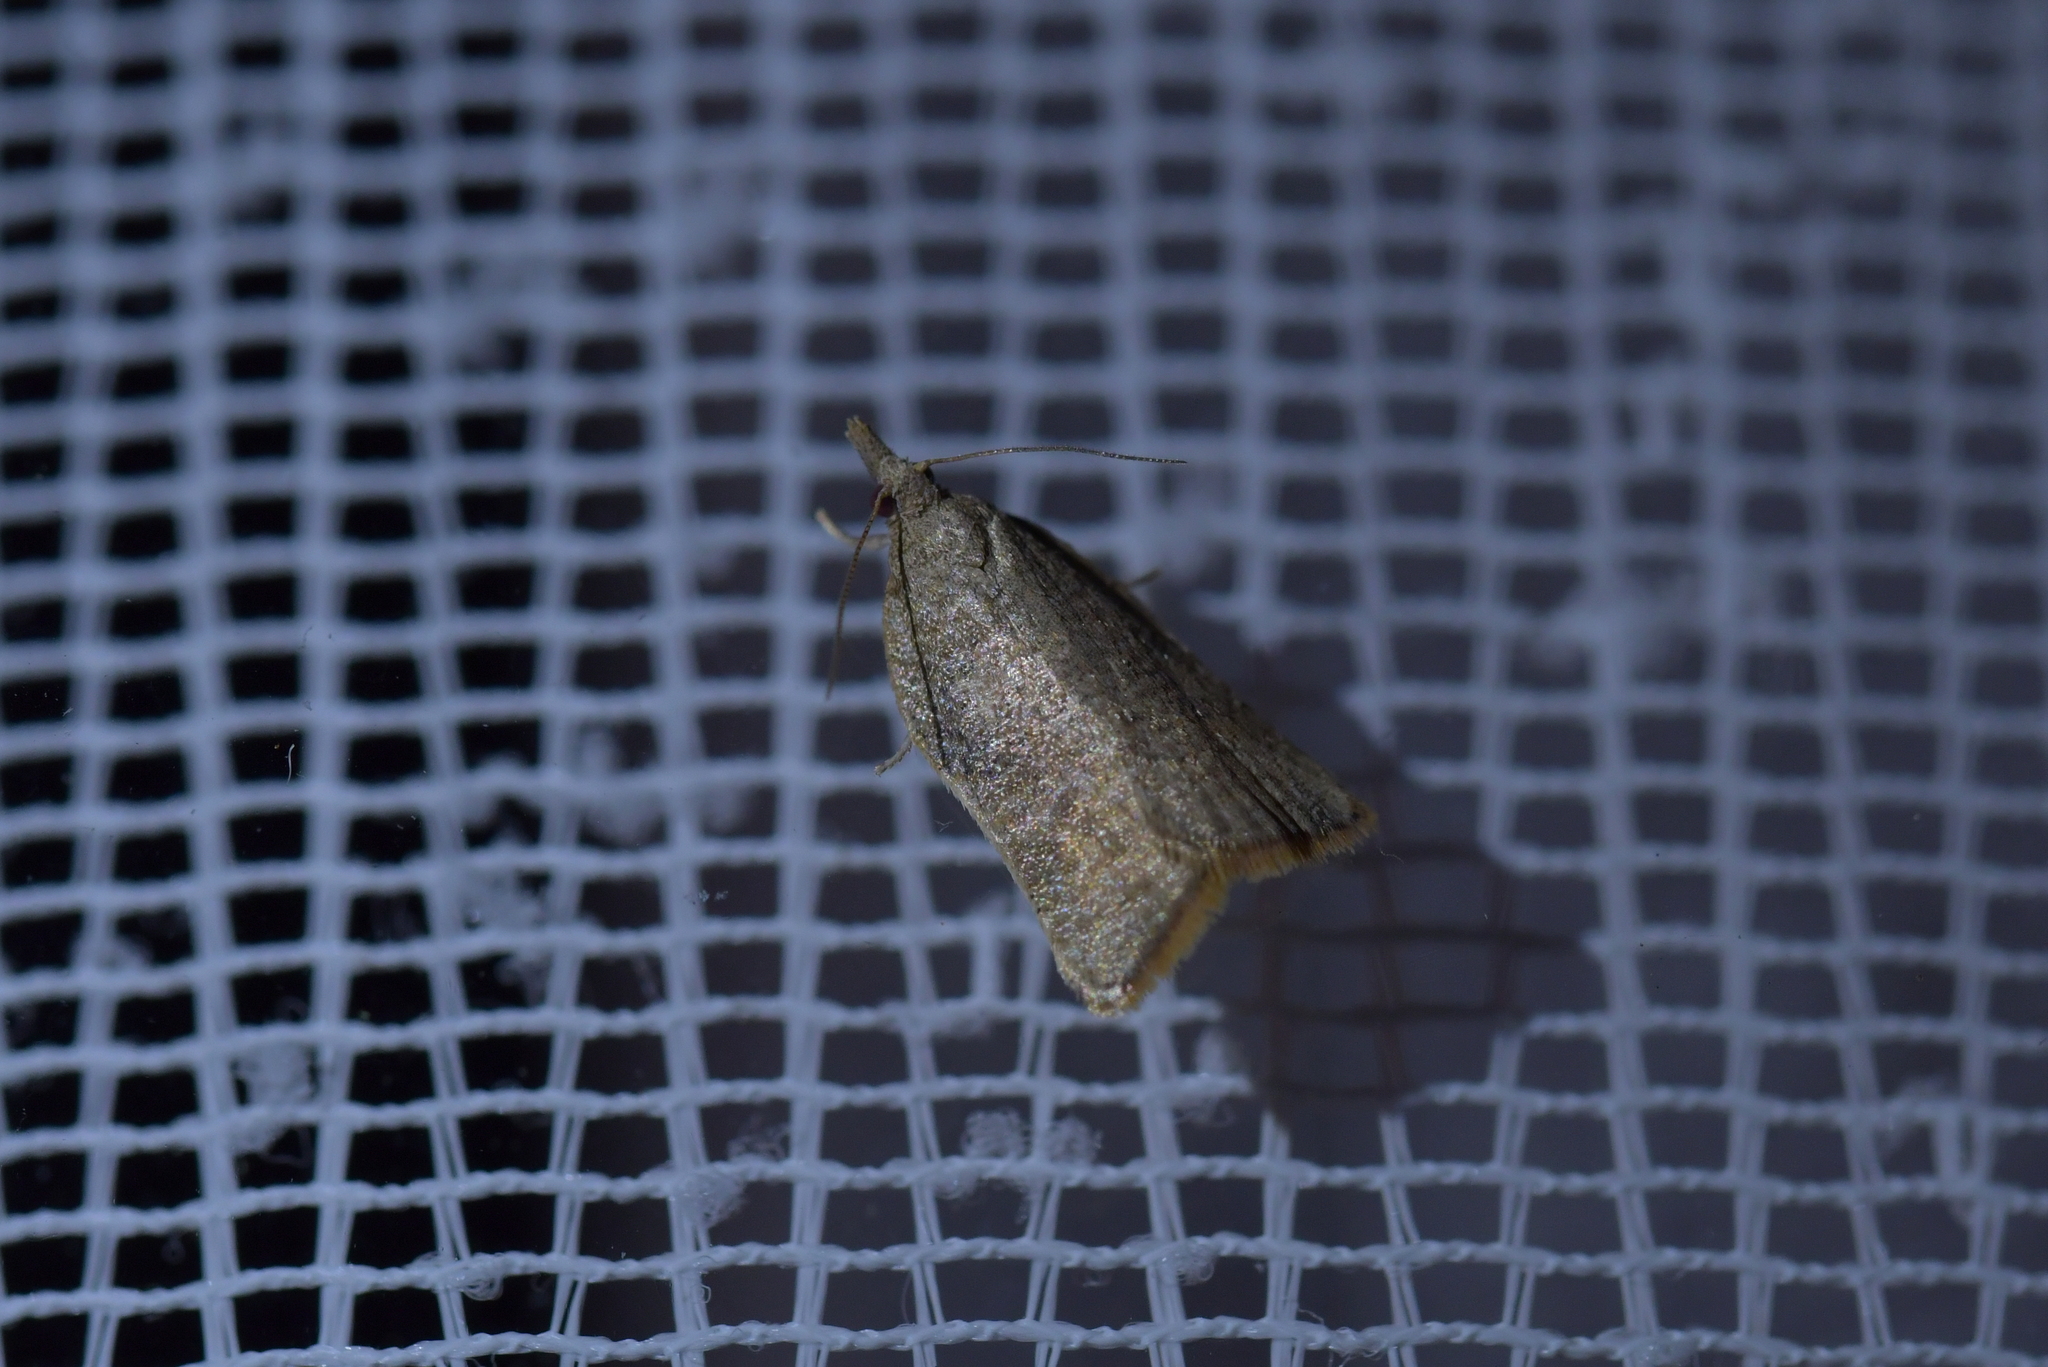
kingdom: Animalia
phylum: Arthropoda
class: Insecta
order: Lepidoptera
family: Tortricidae
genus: Catamacta
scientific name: Catamacta gavisana
